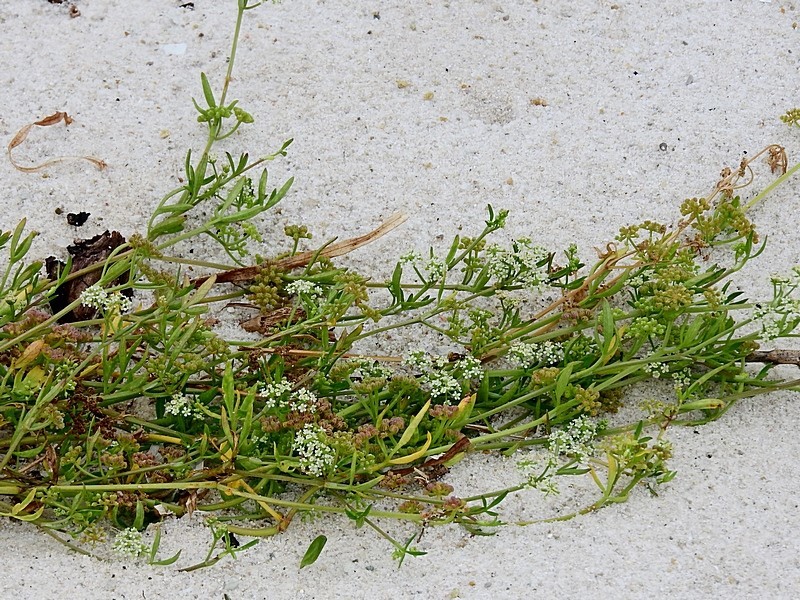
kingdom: Plantae
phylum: Tracheophyta
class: Magnoliopsida
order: Apiales
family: Apiaceae
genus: Apium
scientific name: Apium prostratum
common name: Prostrate marshwort
